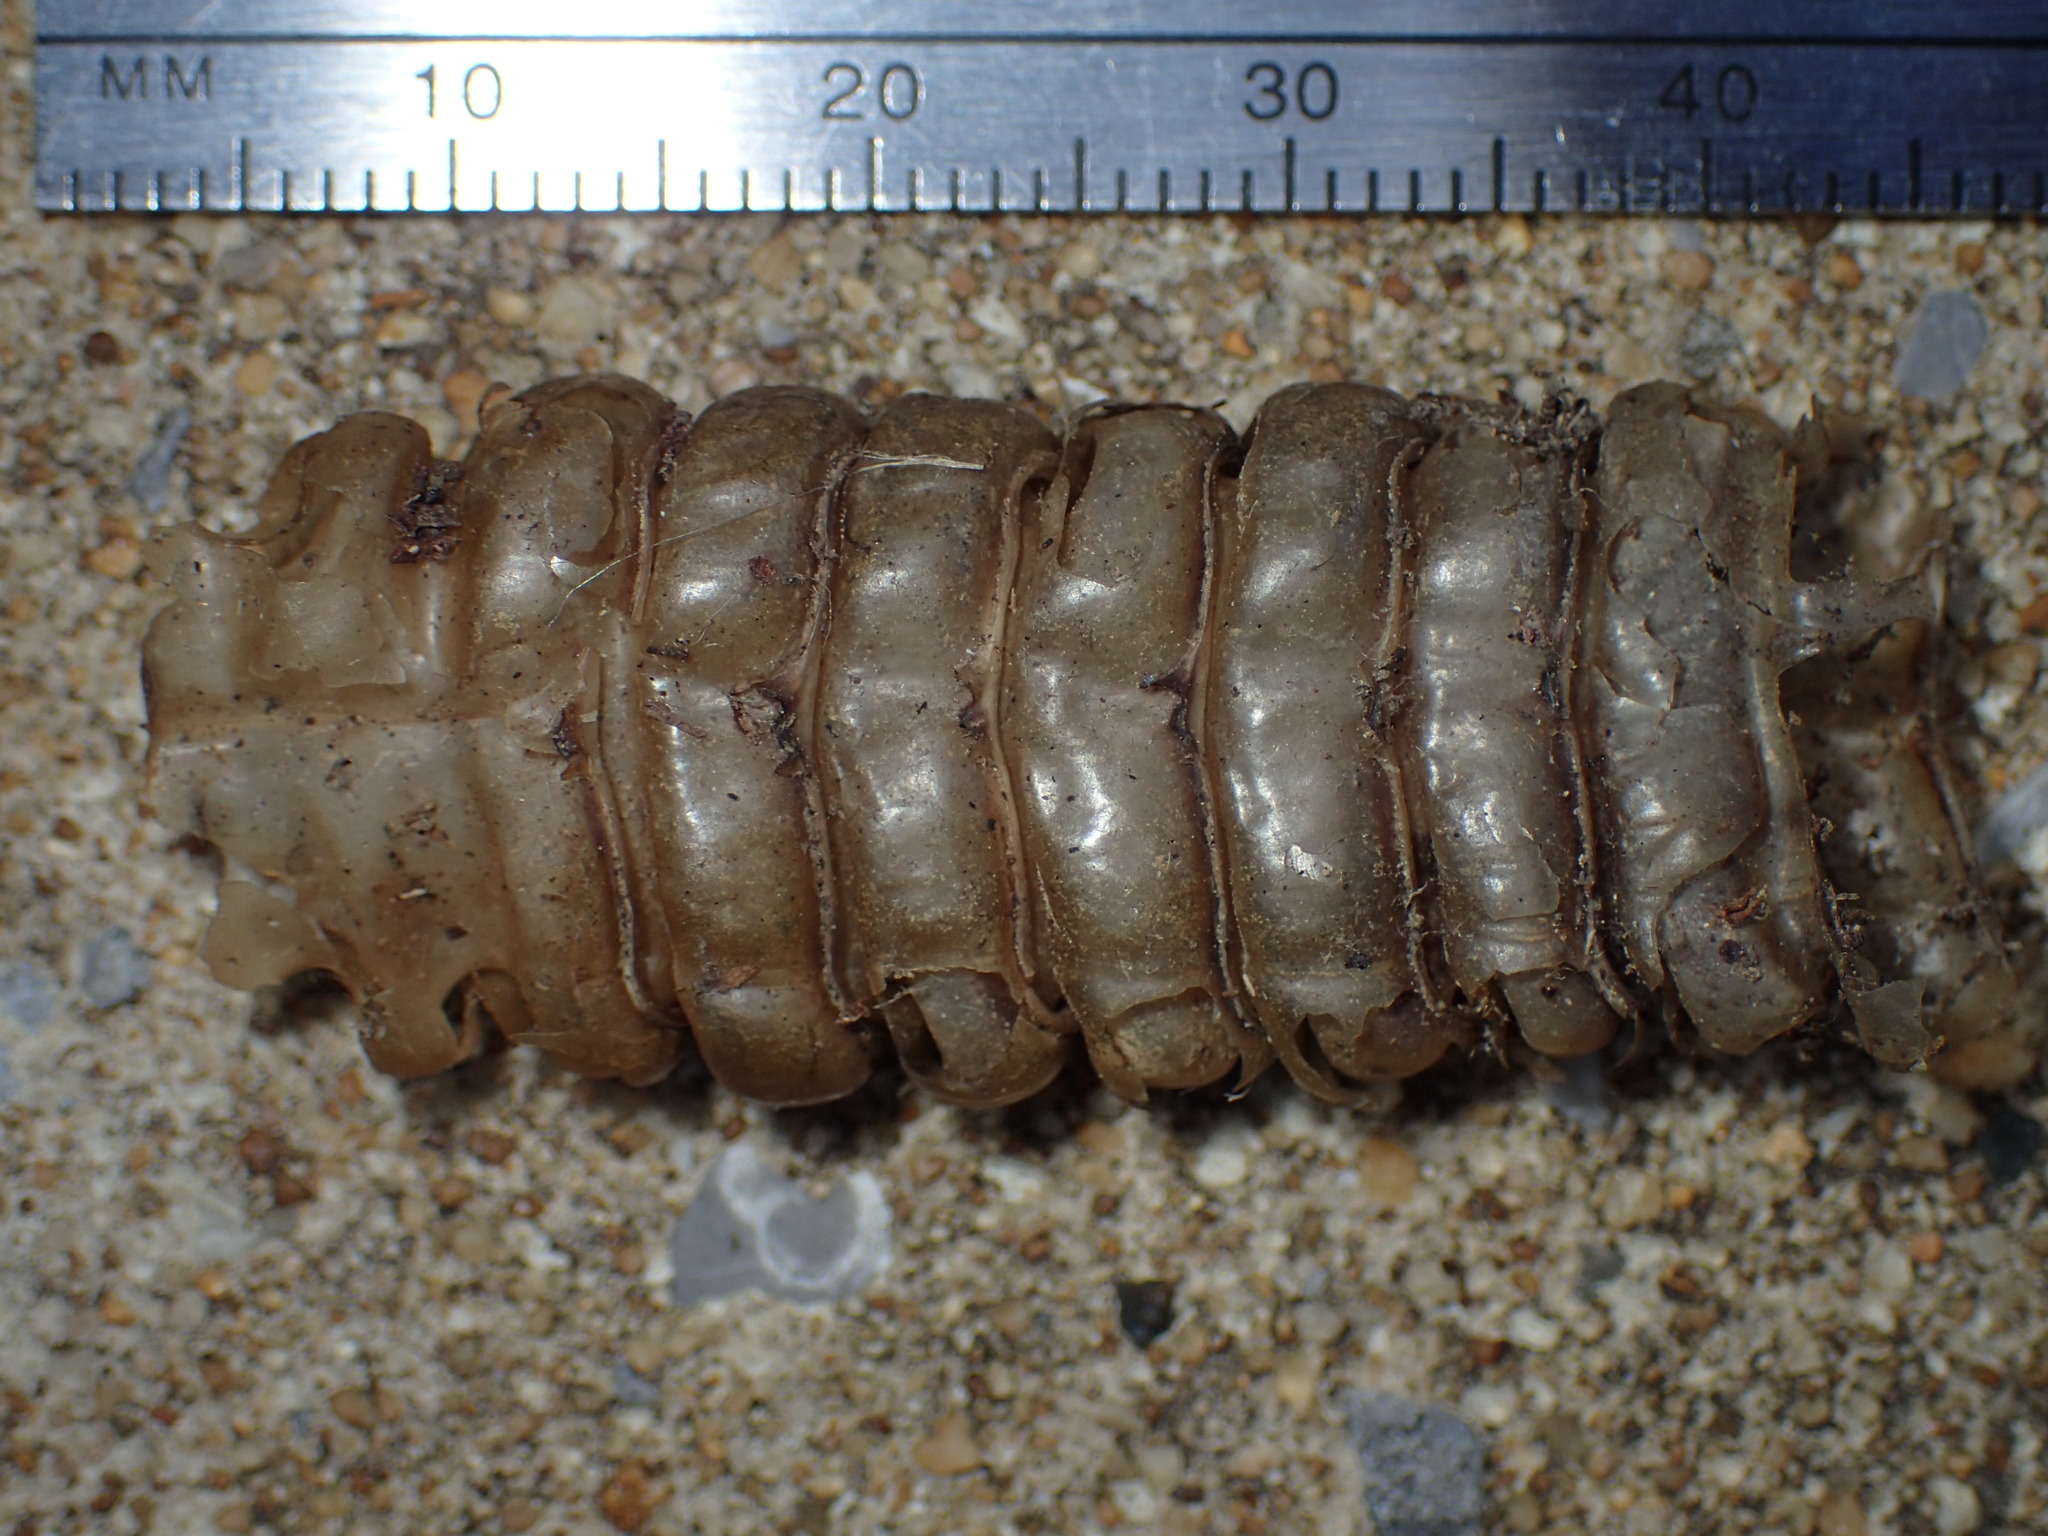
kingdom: Animalia
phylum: Chordata
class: Squamata
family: Viperidae
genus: Crotalus
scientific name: Crotalus horridus
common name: Timber rattlesnake
